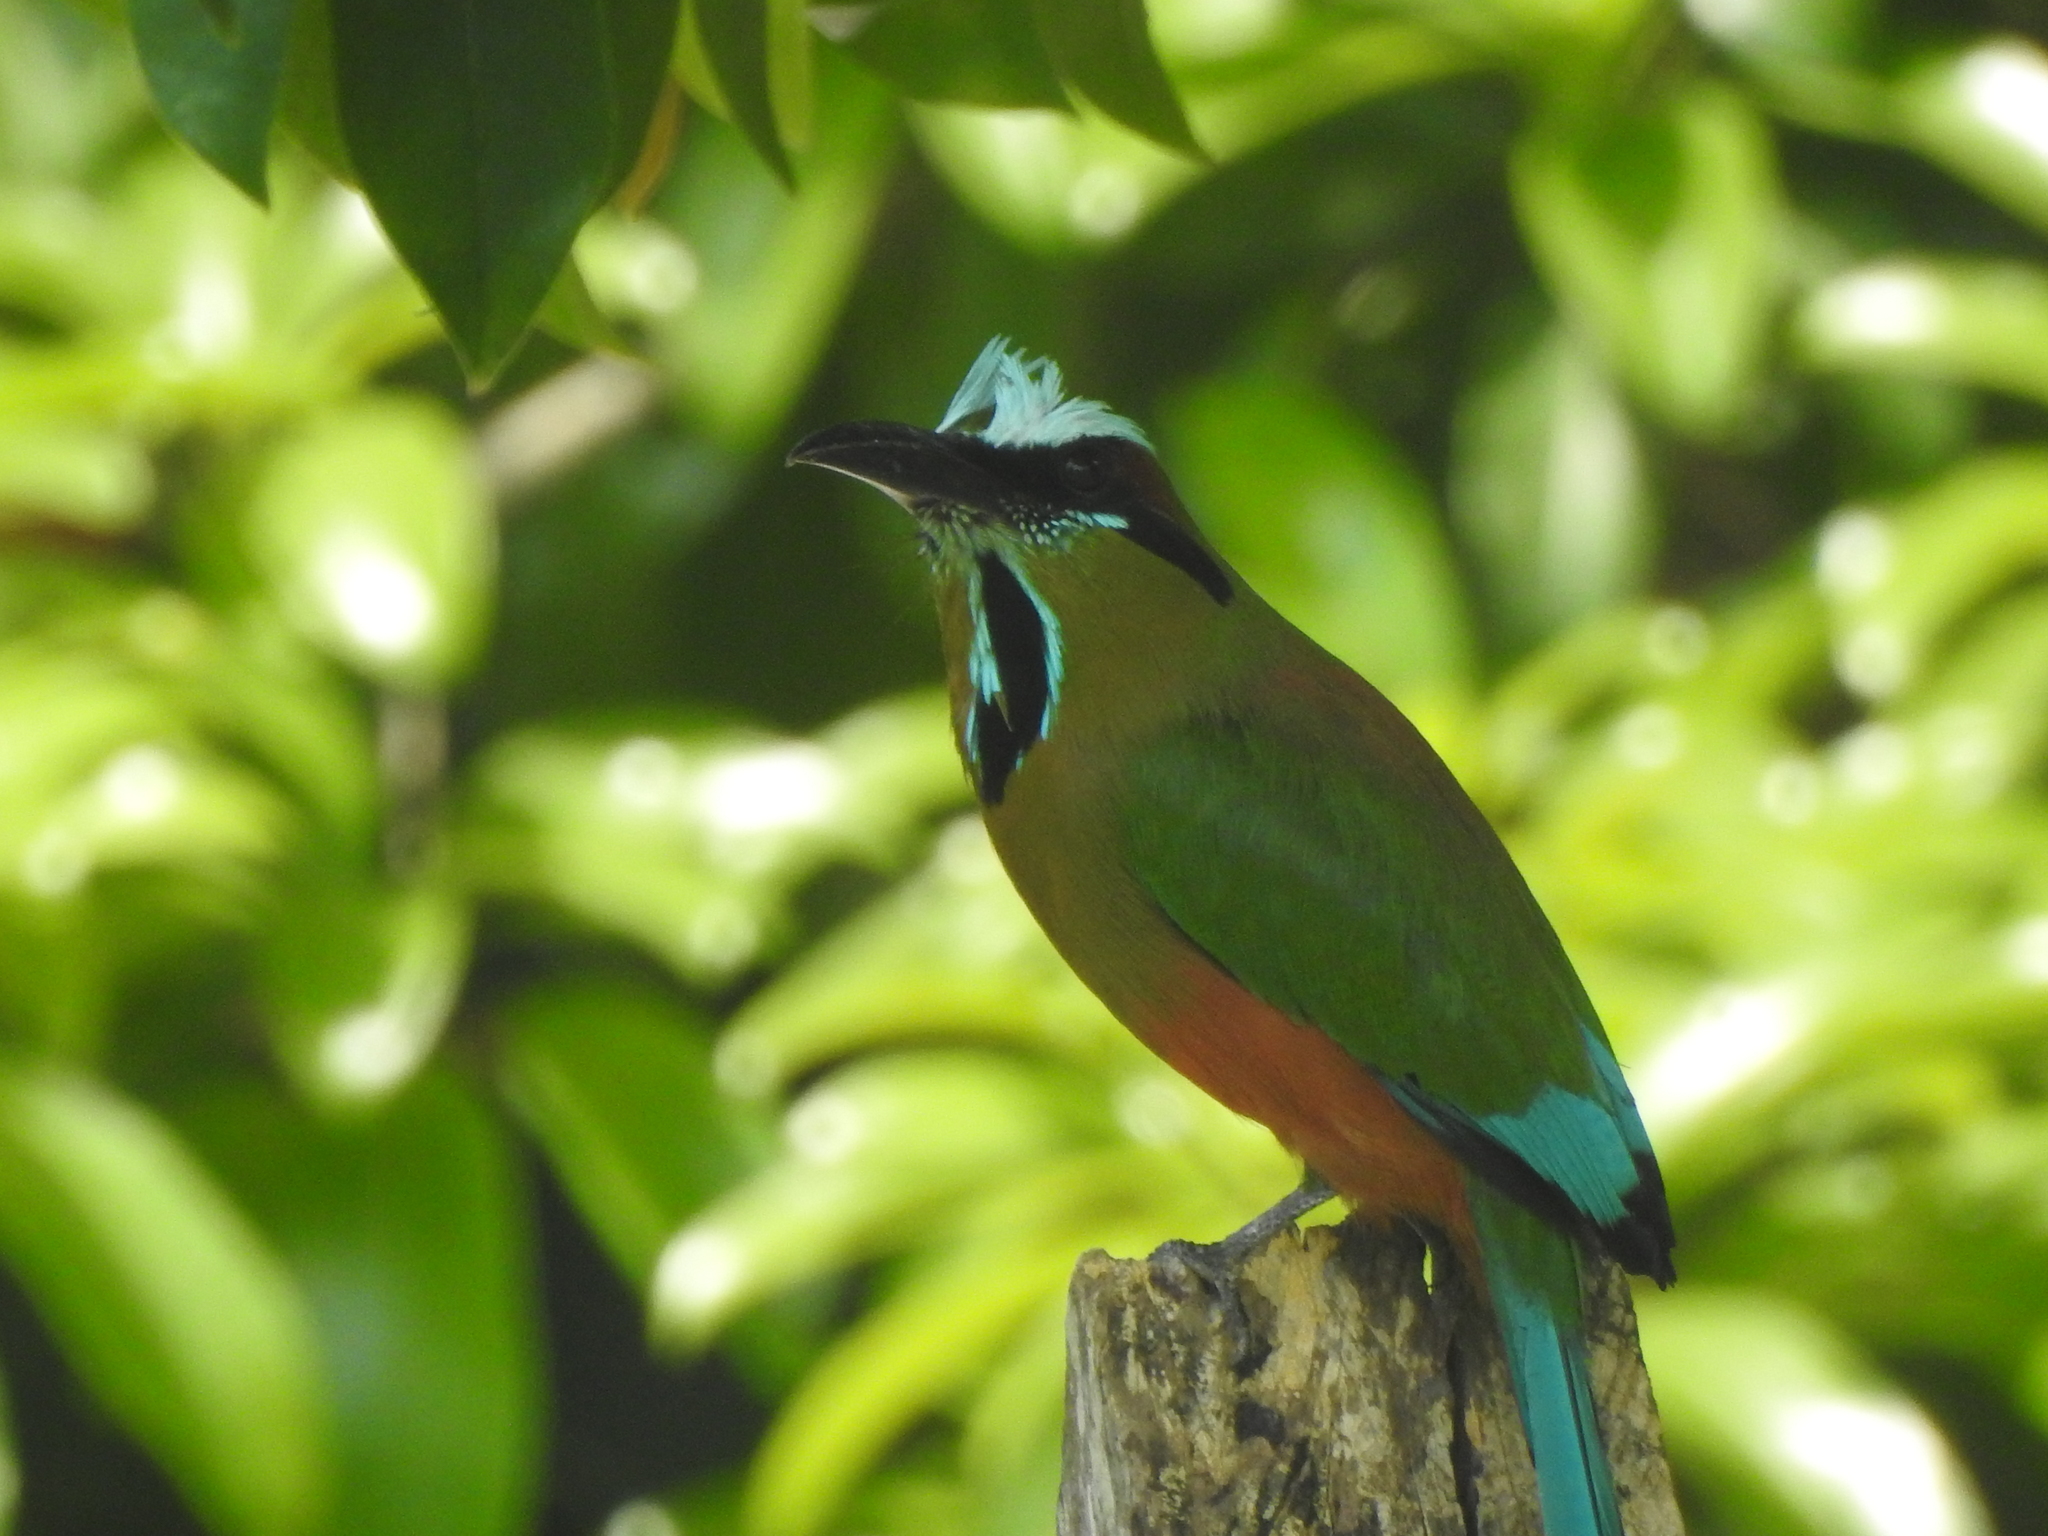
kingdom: Animalia
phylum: Chordata
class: Aves
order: Coraciiformes
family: Momotidae
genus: Eumomota
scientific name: Eumomota superciliosa
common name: Turquoise-browed motmot
